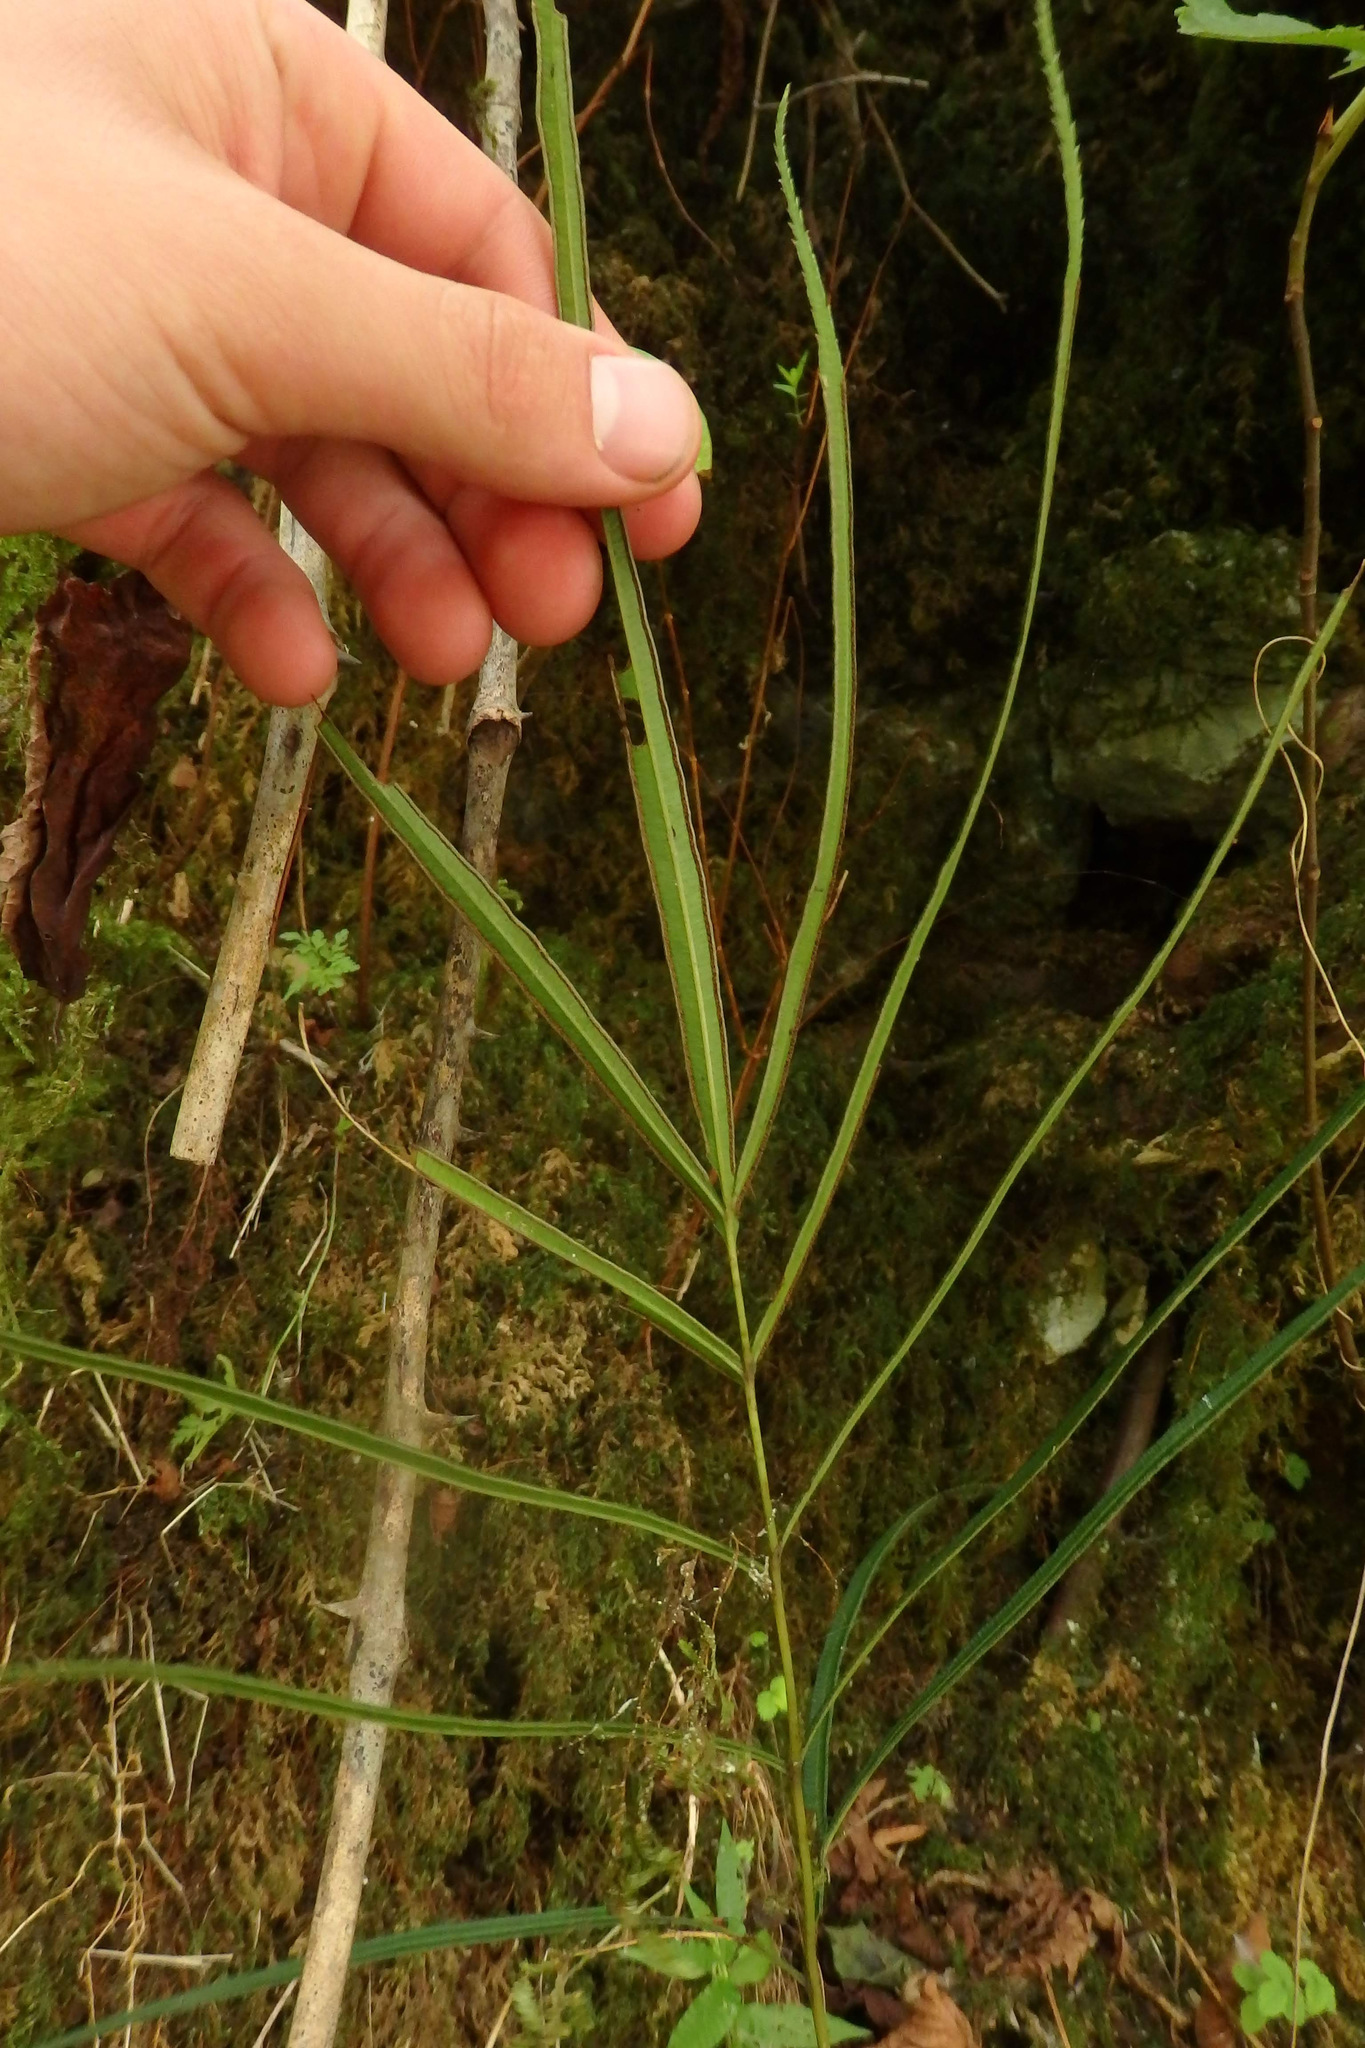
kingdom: Plantae
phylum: Tracheophyta
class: Polypodiopsida
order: Polypodiales
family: Pteridaceae
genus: Pteris
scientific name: Pteris cretica
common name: Ribbon fern
